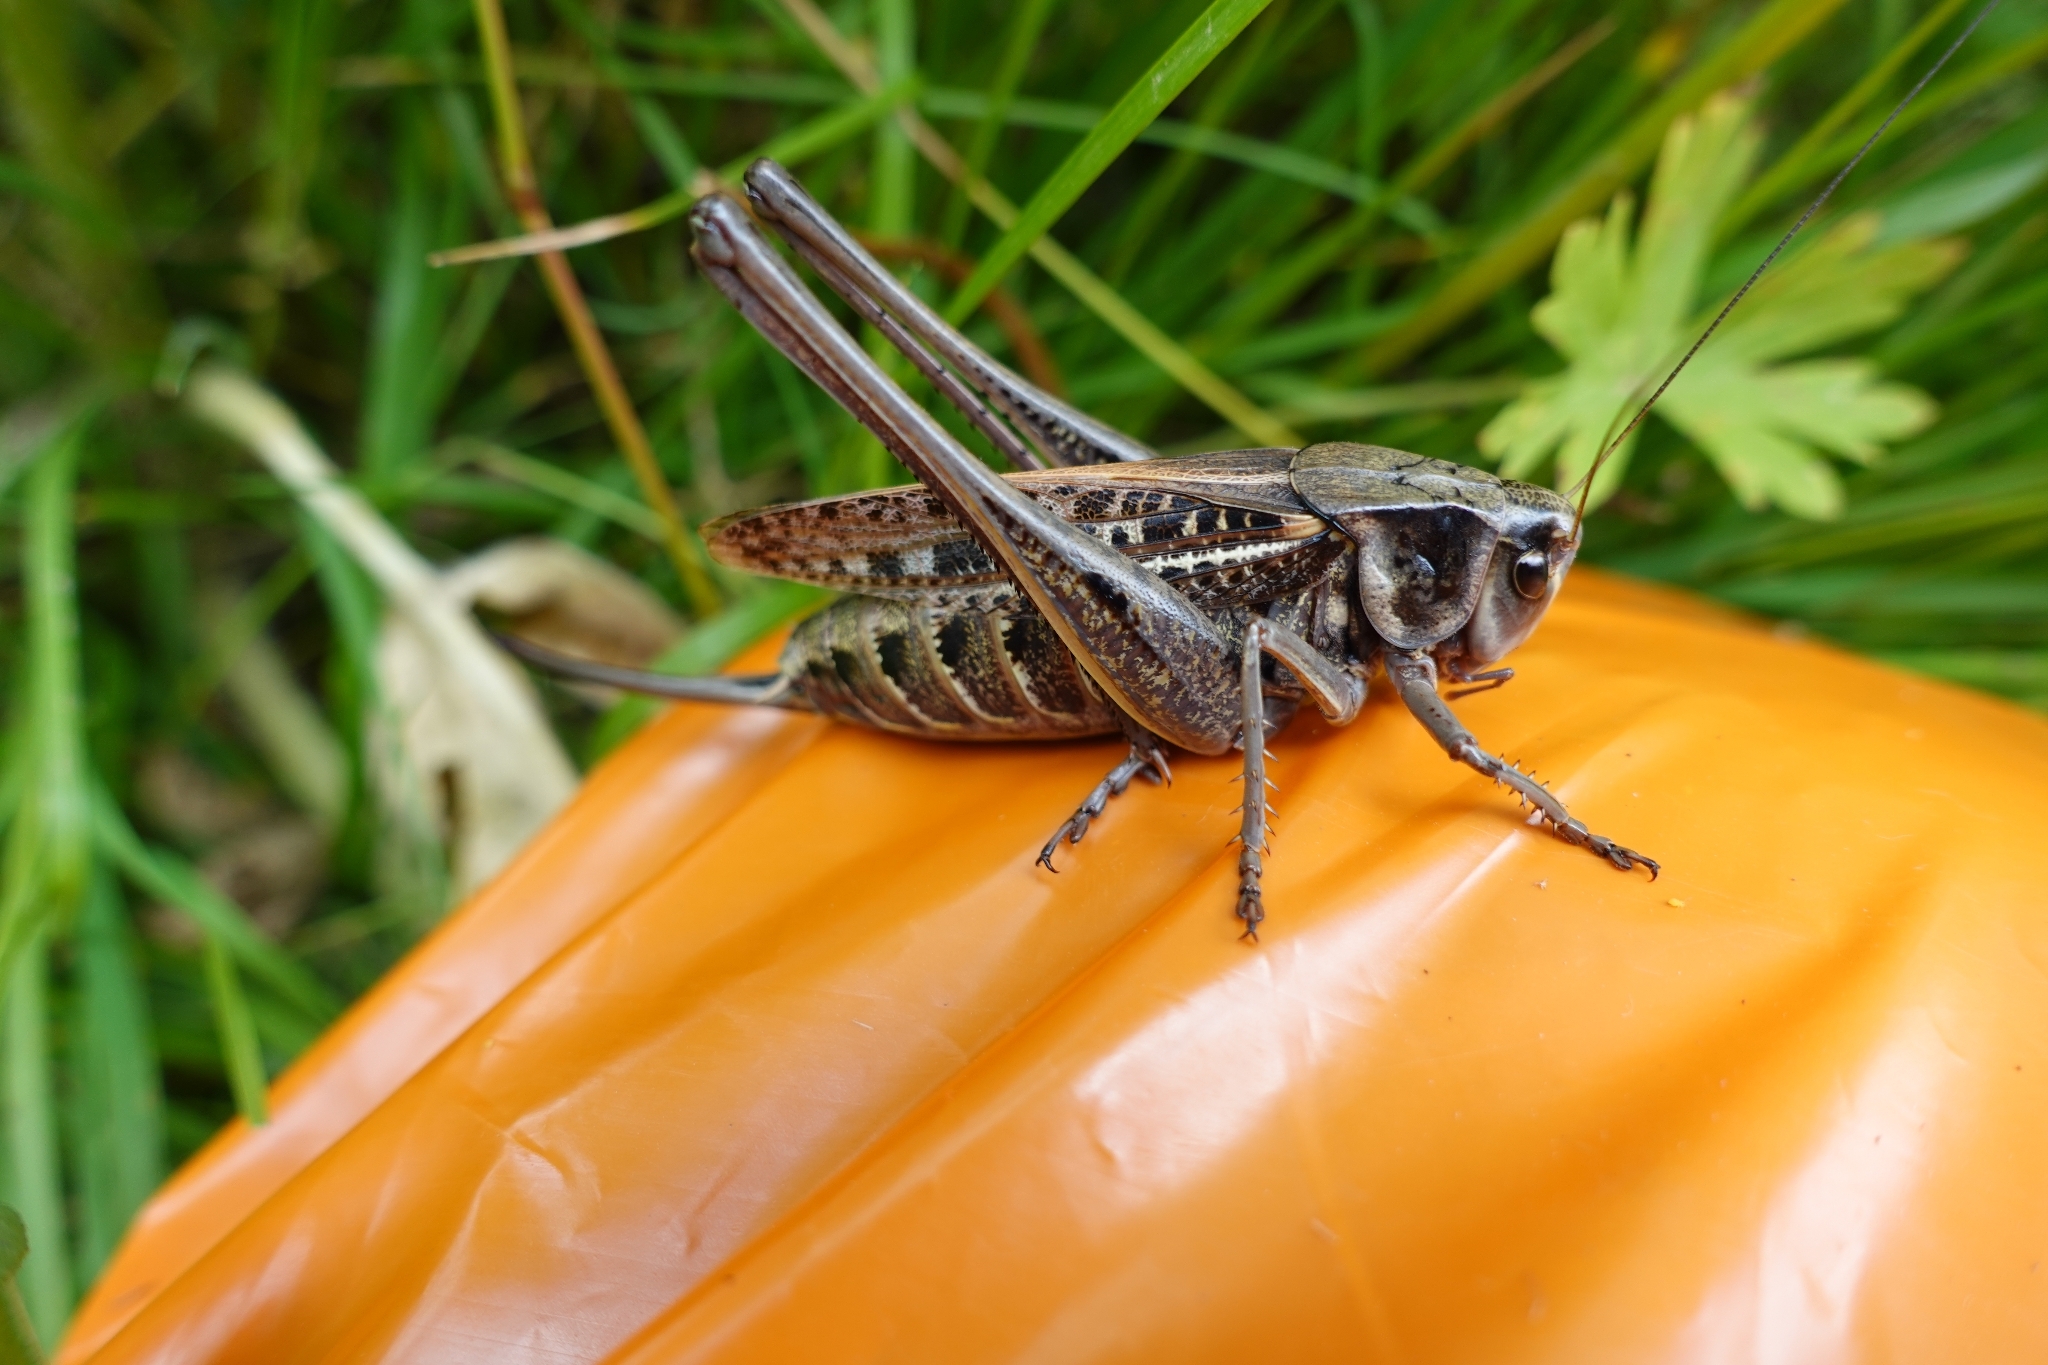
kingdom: Animalia
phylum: Arthropoda
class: Insecta
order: Orthoptera
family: Tettigoniidae
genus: Decticus
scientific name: Decticus verrucivorus
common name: Wart-biter
